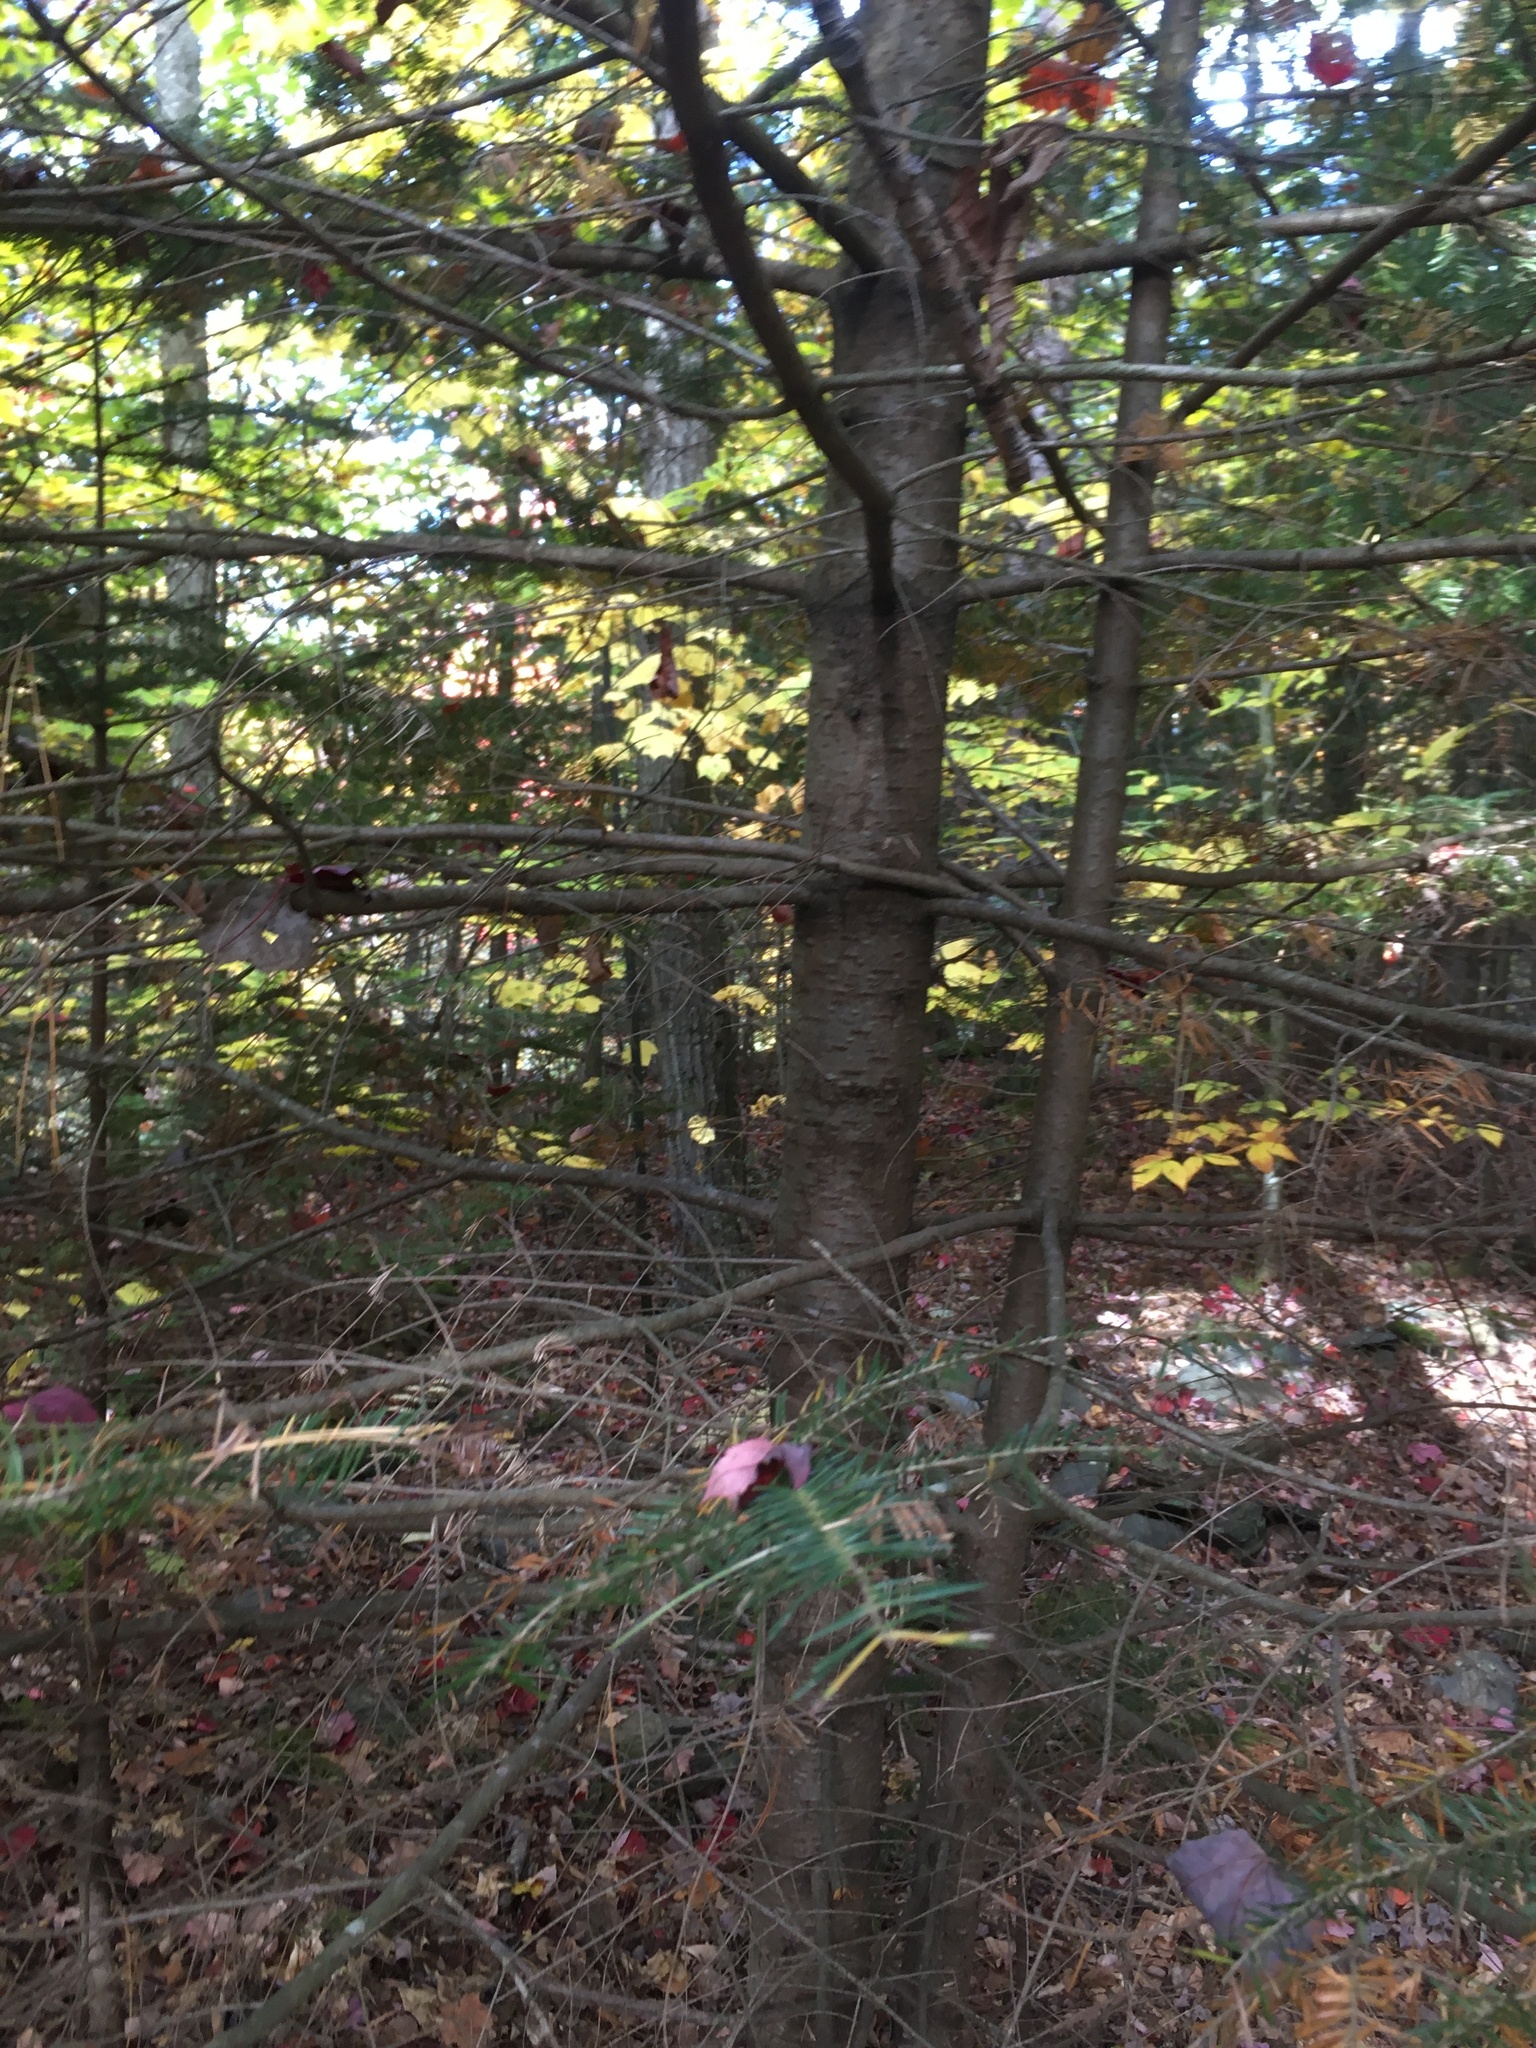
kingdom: Plantae
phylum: Tracheophyta
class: Pinopsida
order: Pinales
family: Pinaceae
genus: Abies
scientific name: Abies balsamea
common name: Balsam fir
